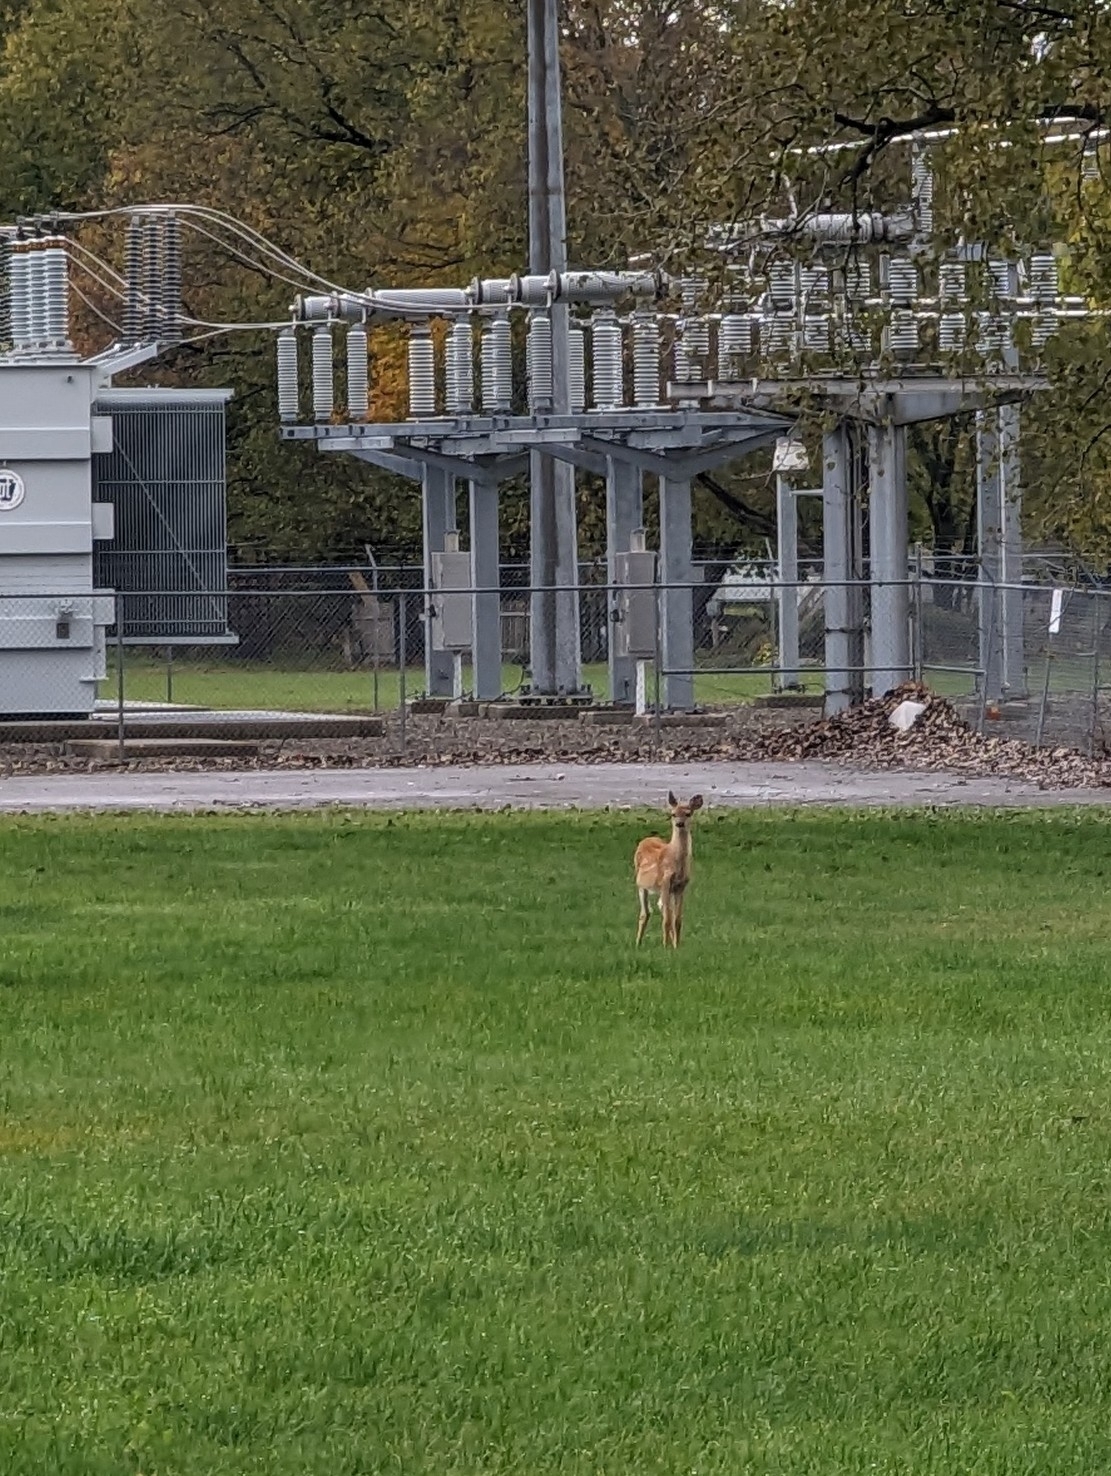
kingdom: Animalia
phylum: Chordata
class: Mammalia
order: Artiodactyla
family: Cervidae
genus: Odocoileus
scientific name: Odocoileus virginianus
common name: White-tailed deer
